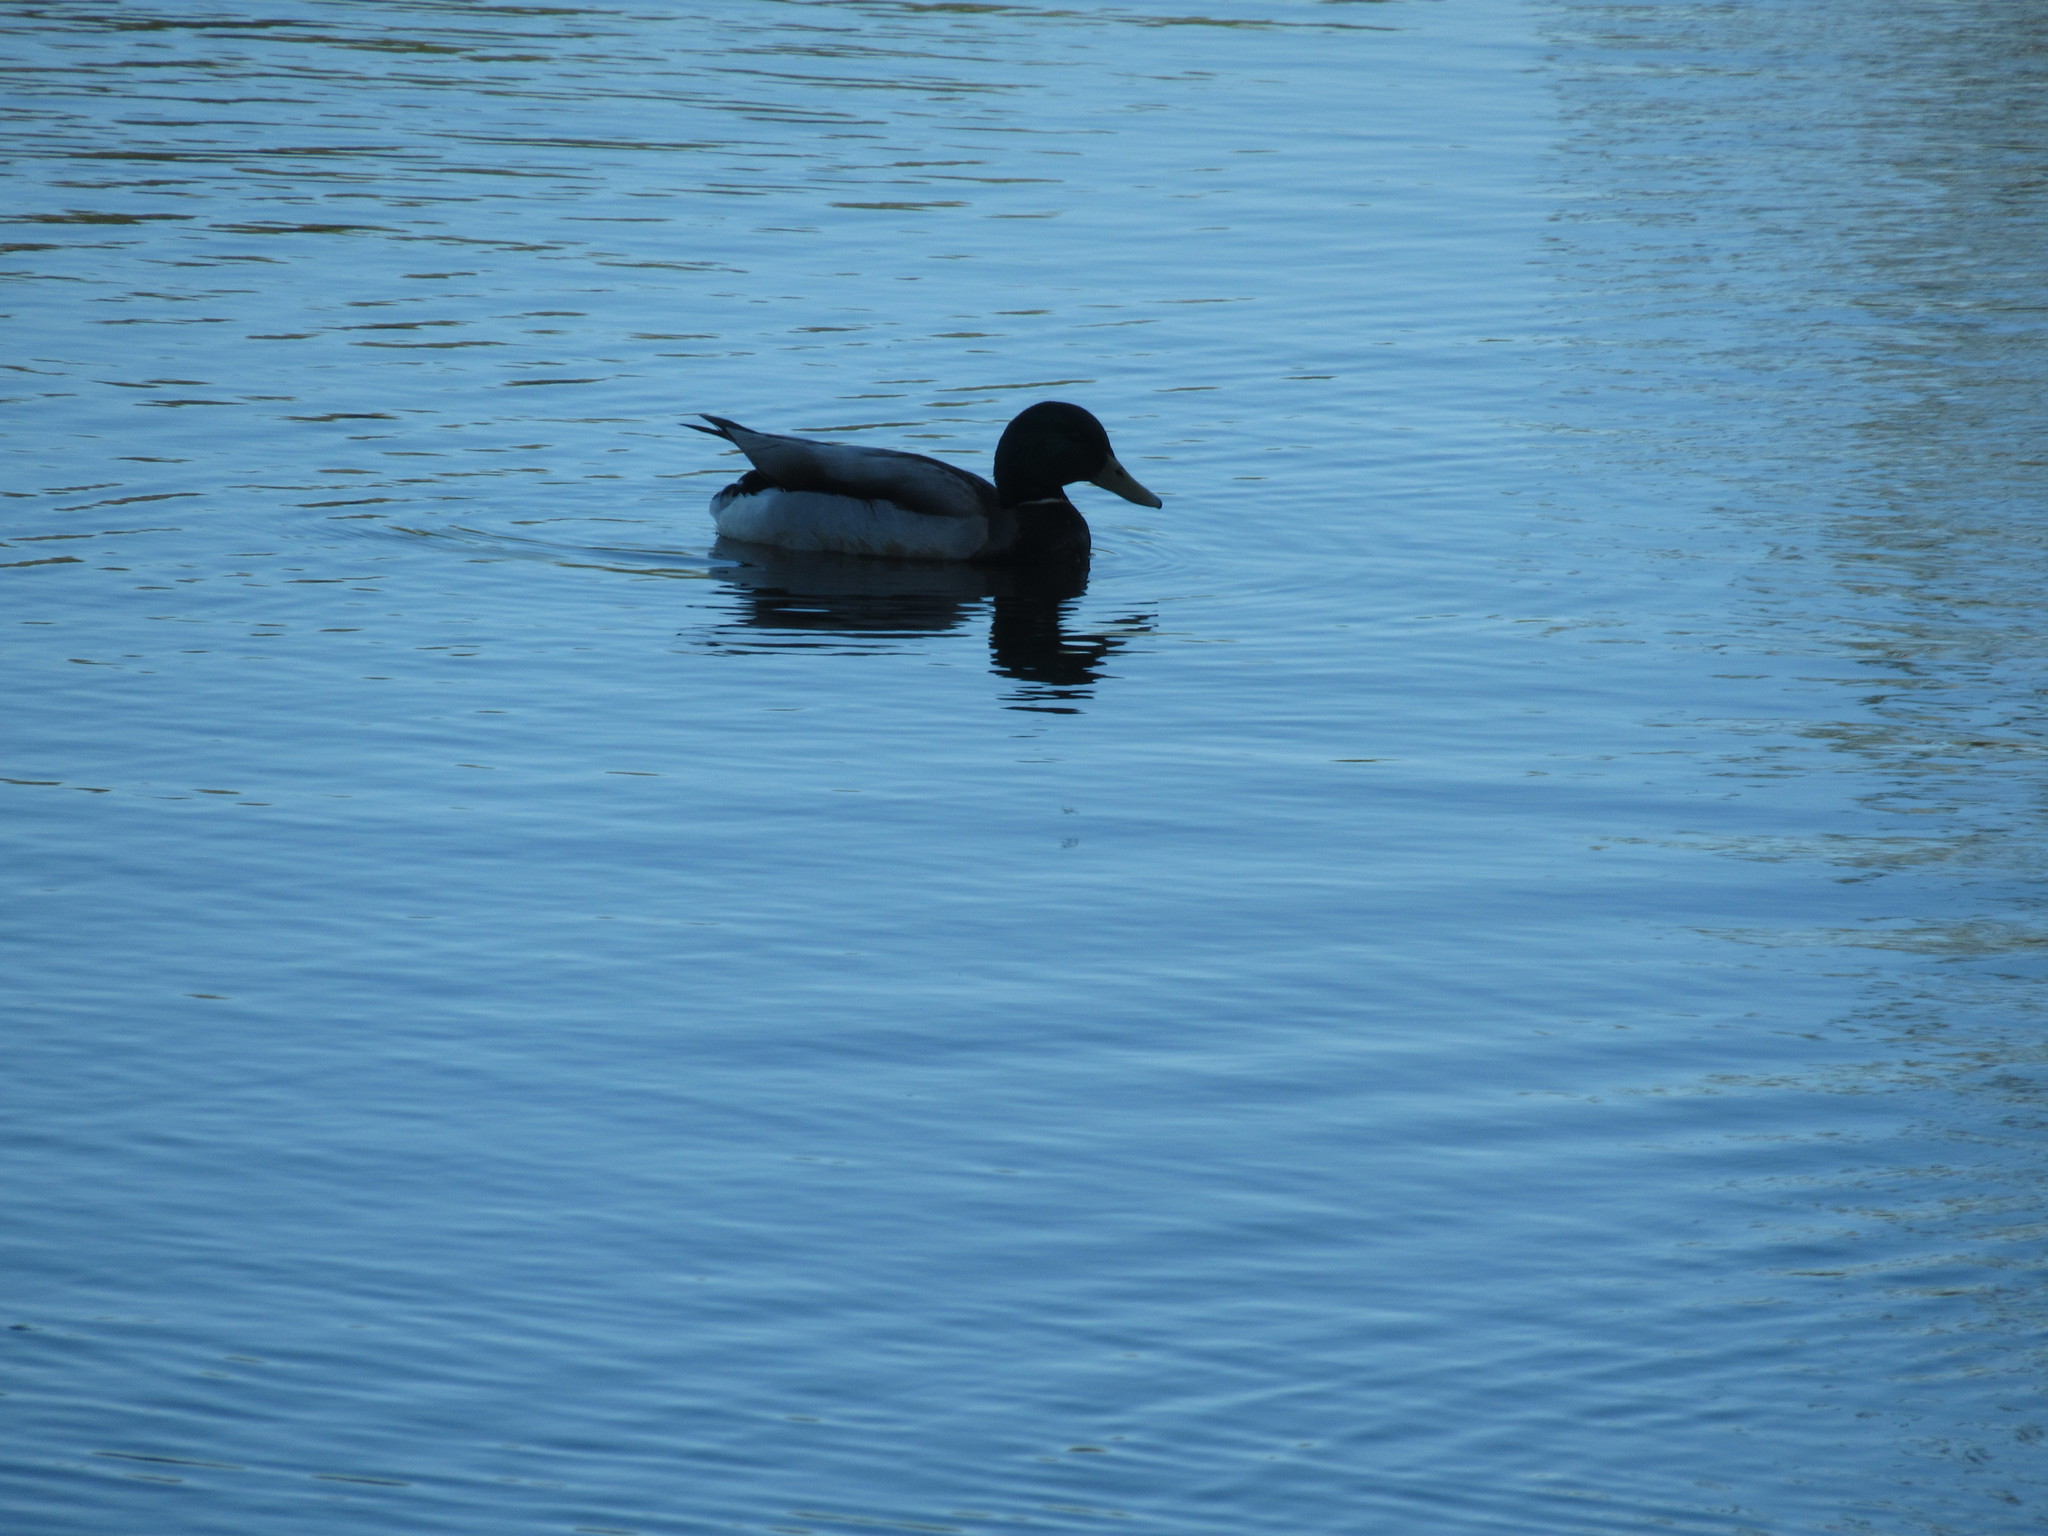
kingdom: Animalia
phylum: Chordata
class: Aves
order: Anseriformes
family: Anatidae
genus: Anas
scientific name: Anas platyrhynchos
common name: Mallard
